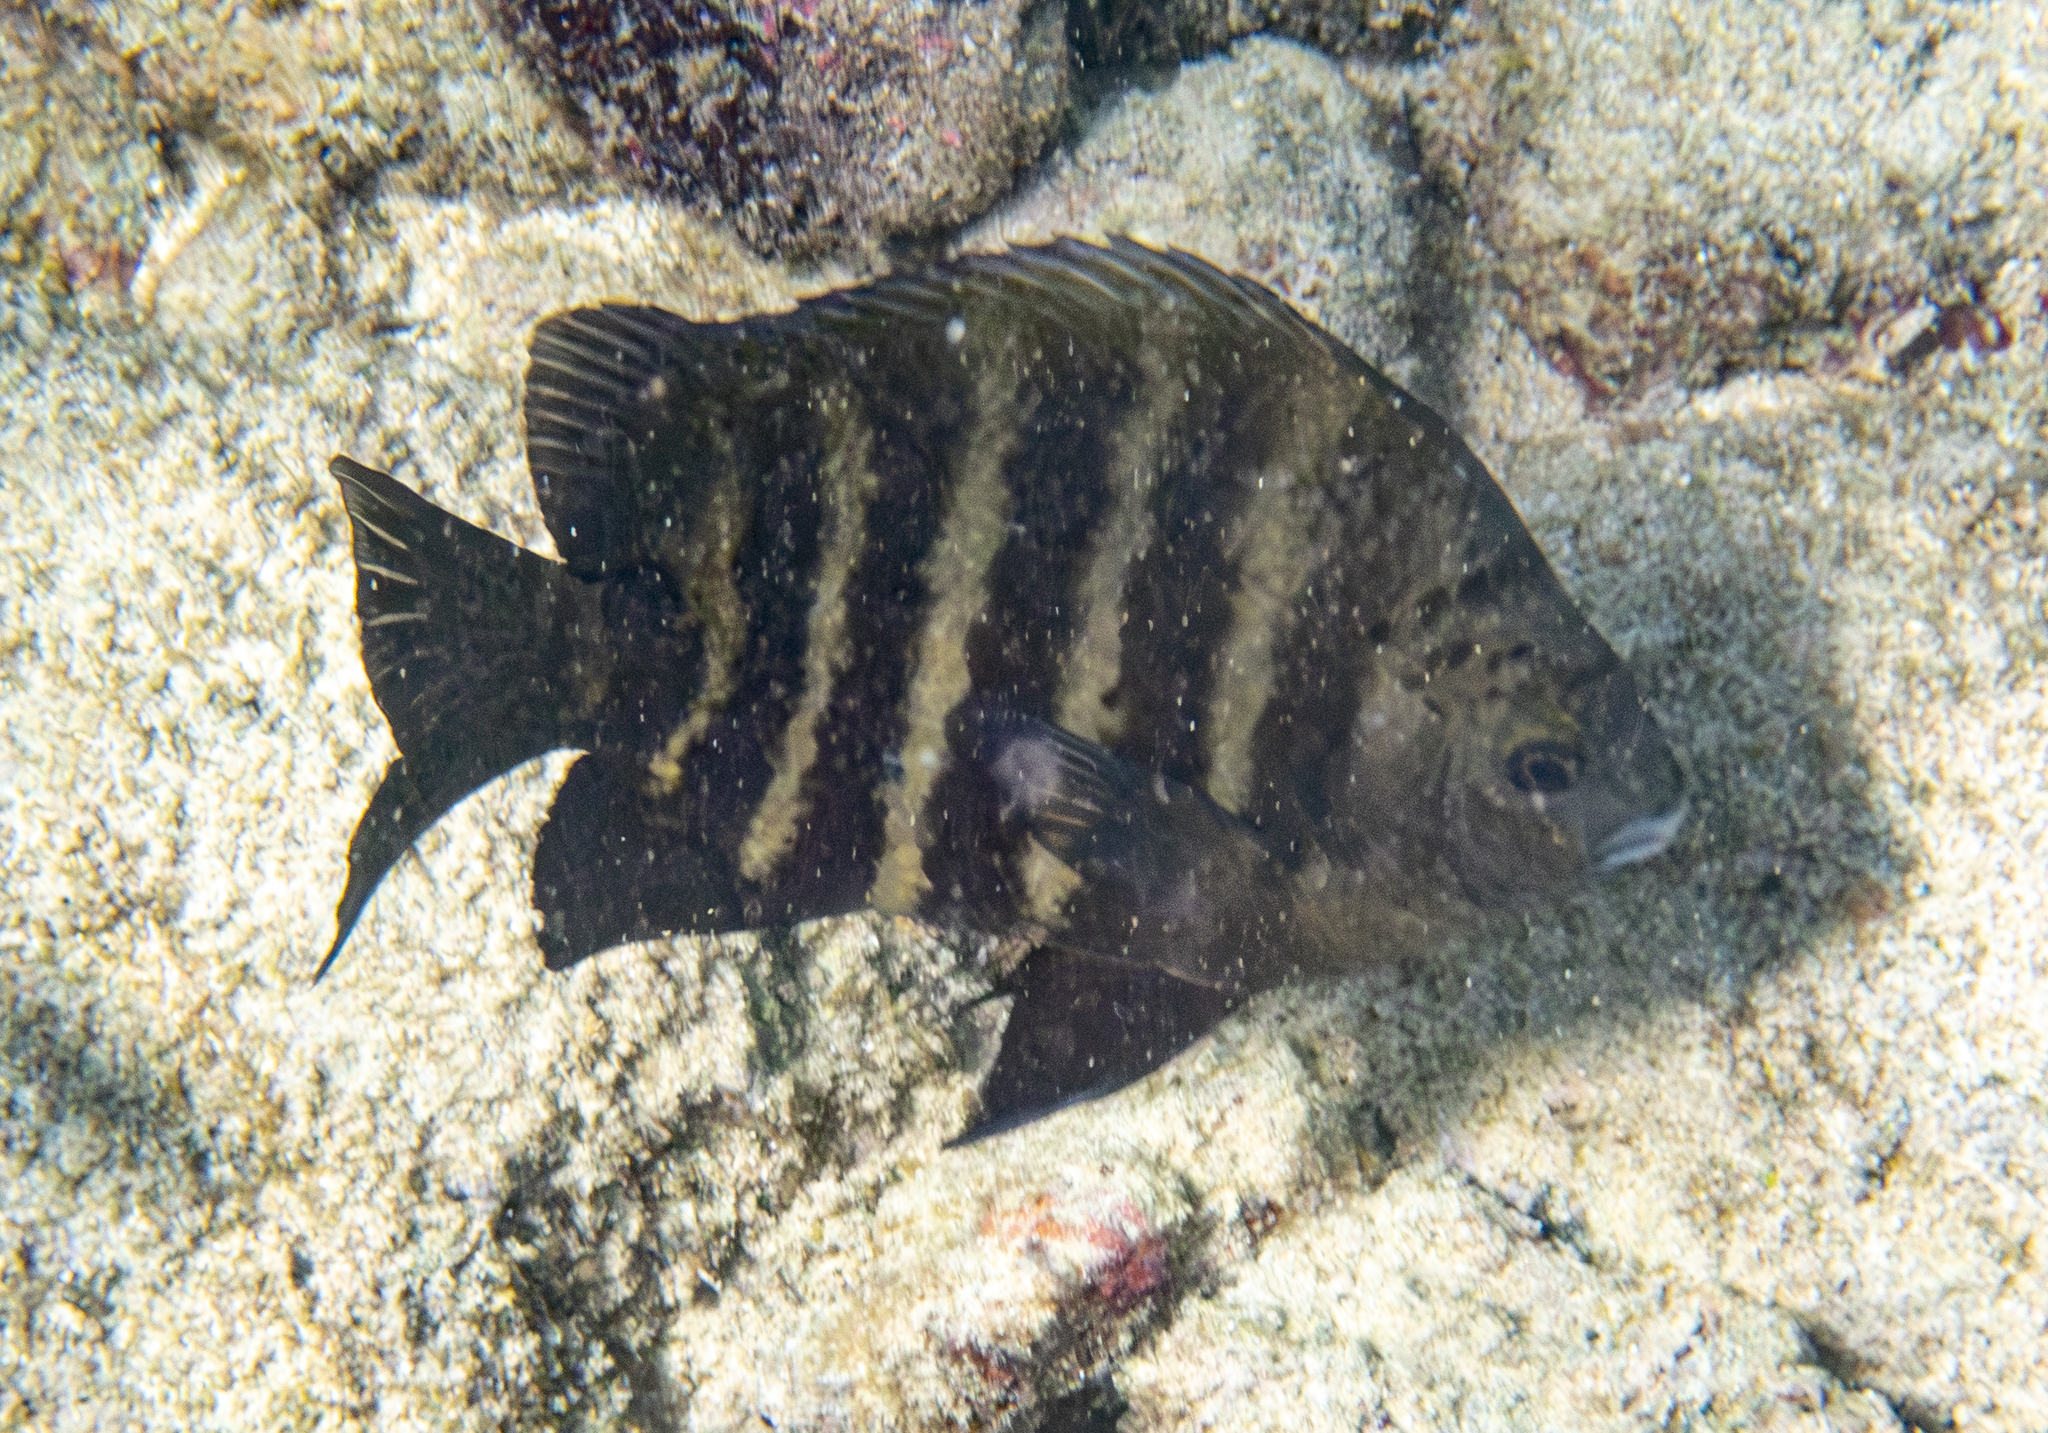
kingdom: Animalia
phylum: Chordata
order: Perciformes
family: Pomacentridae
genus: Abudefduf
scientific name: Abudefduf sordidus
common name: Blackspot sergeant
